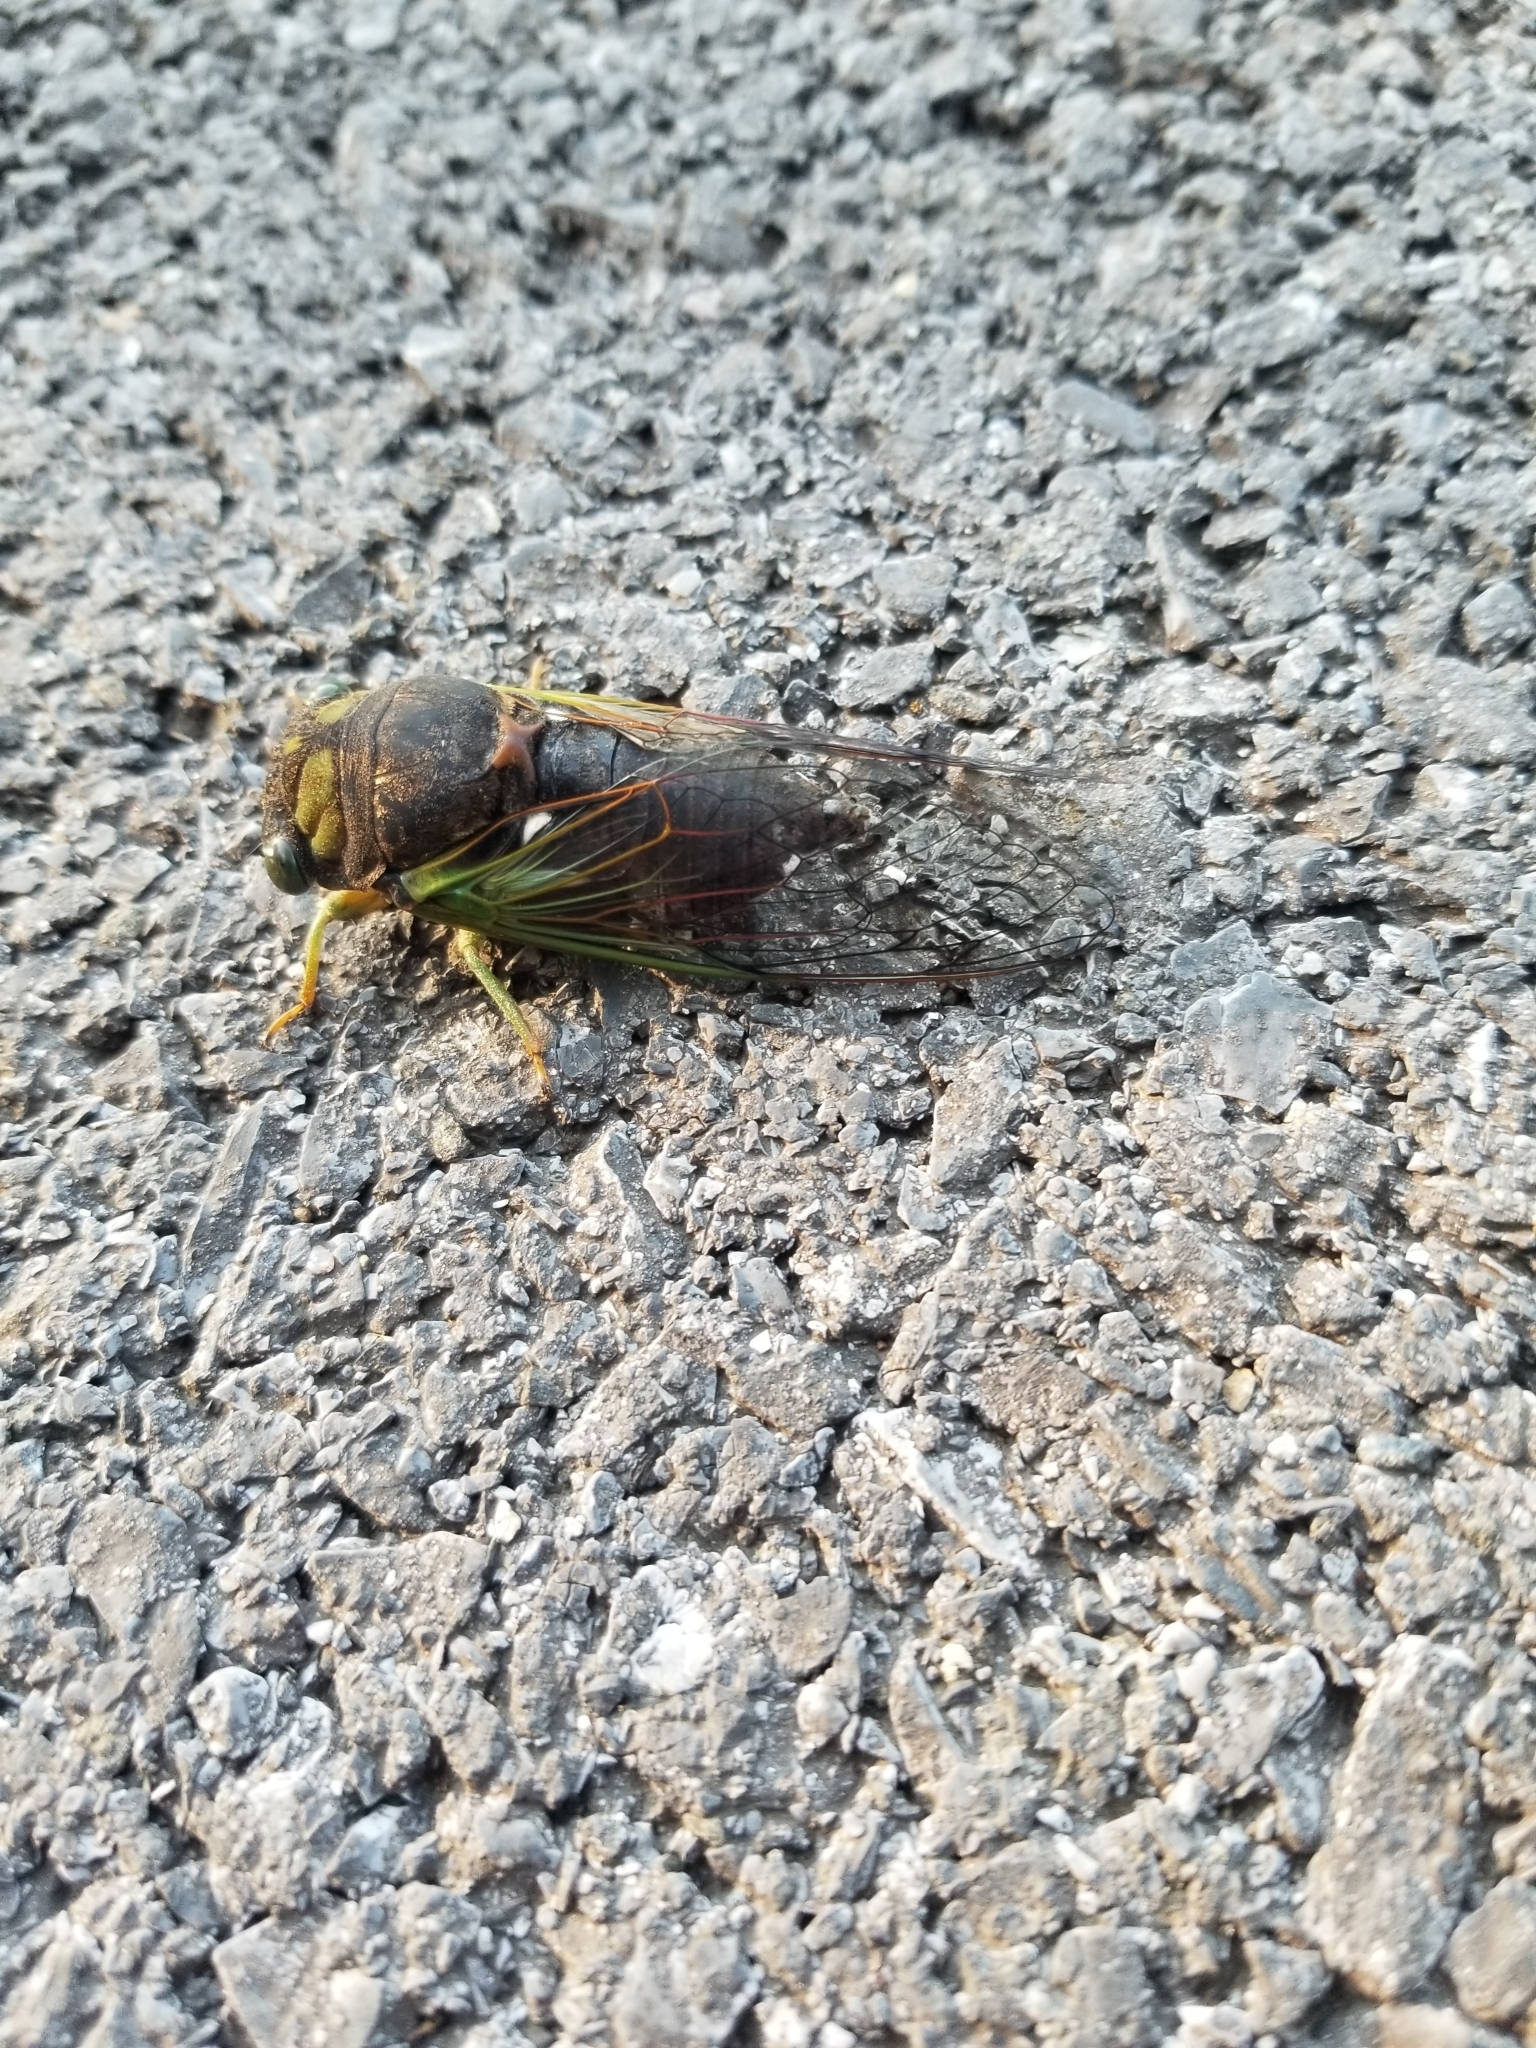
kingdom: Animalia
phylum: Arthropoda
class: Insecta
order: Hemiptera
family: Cicadidae
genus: Neotibicen
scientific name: Neotibicen tibicen
